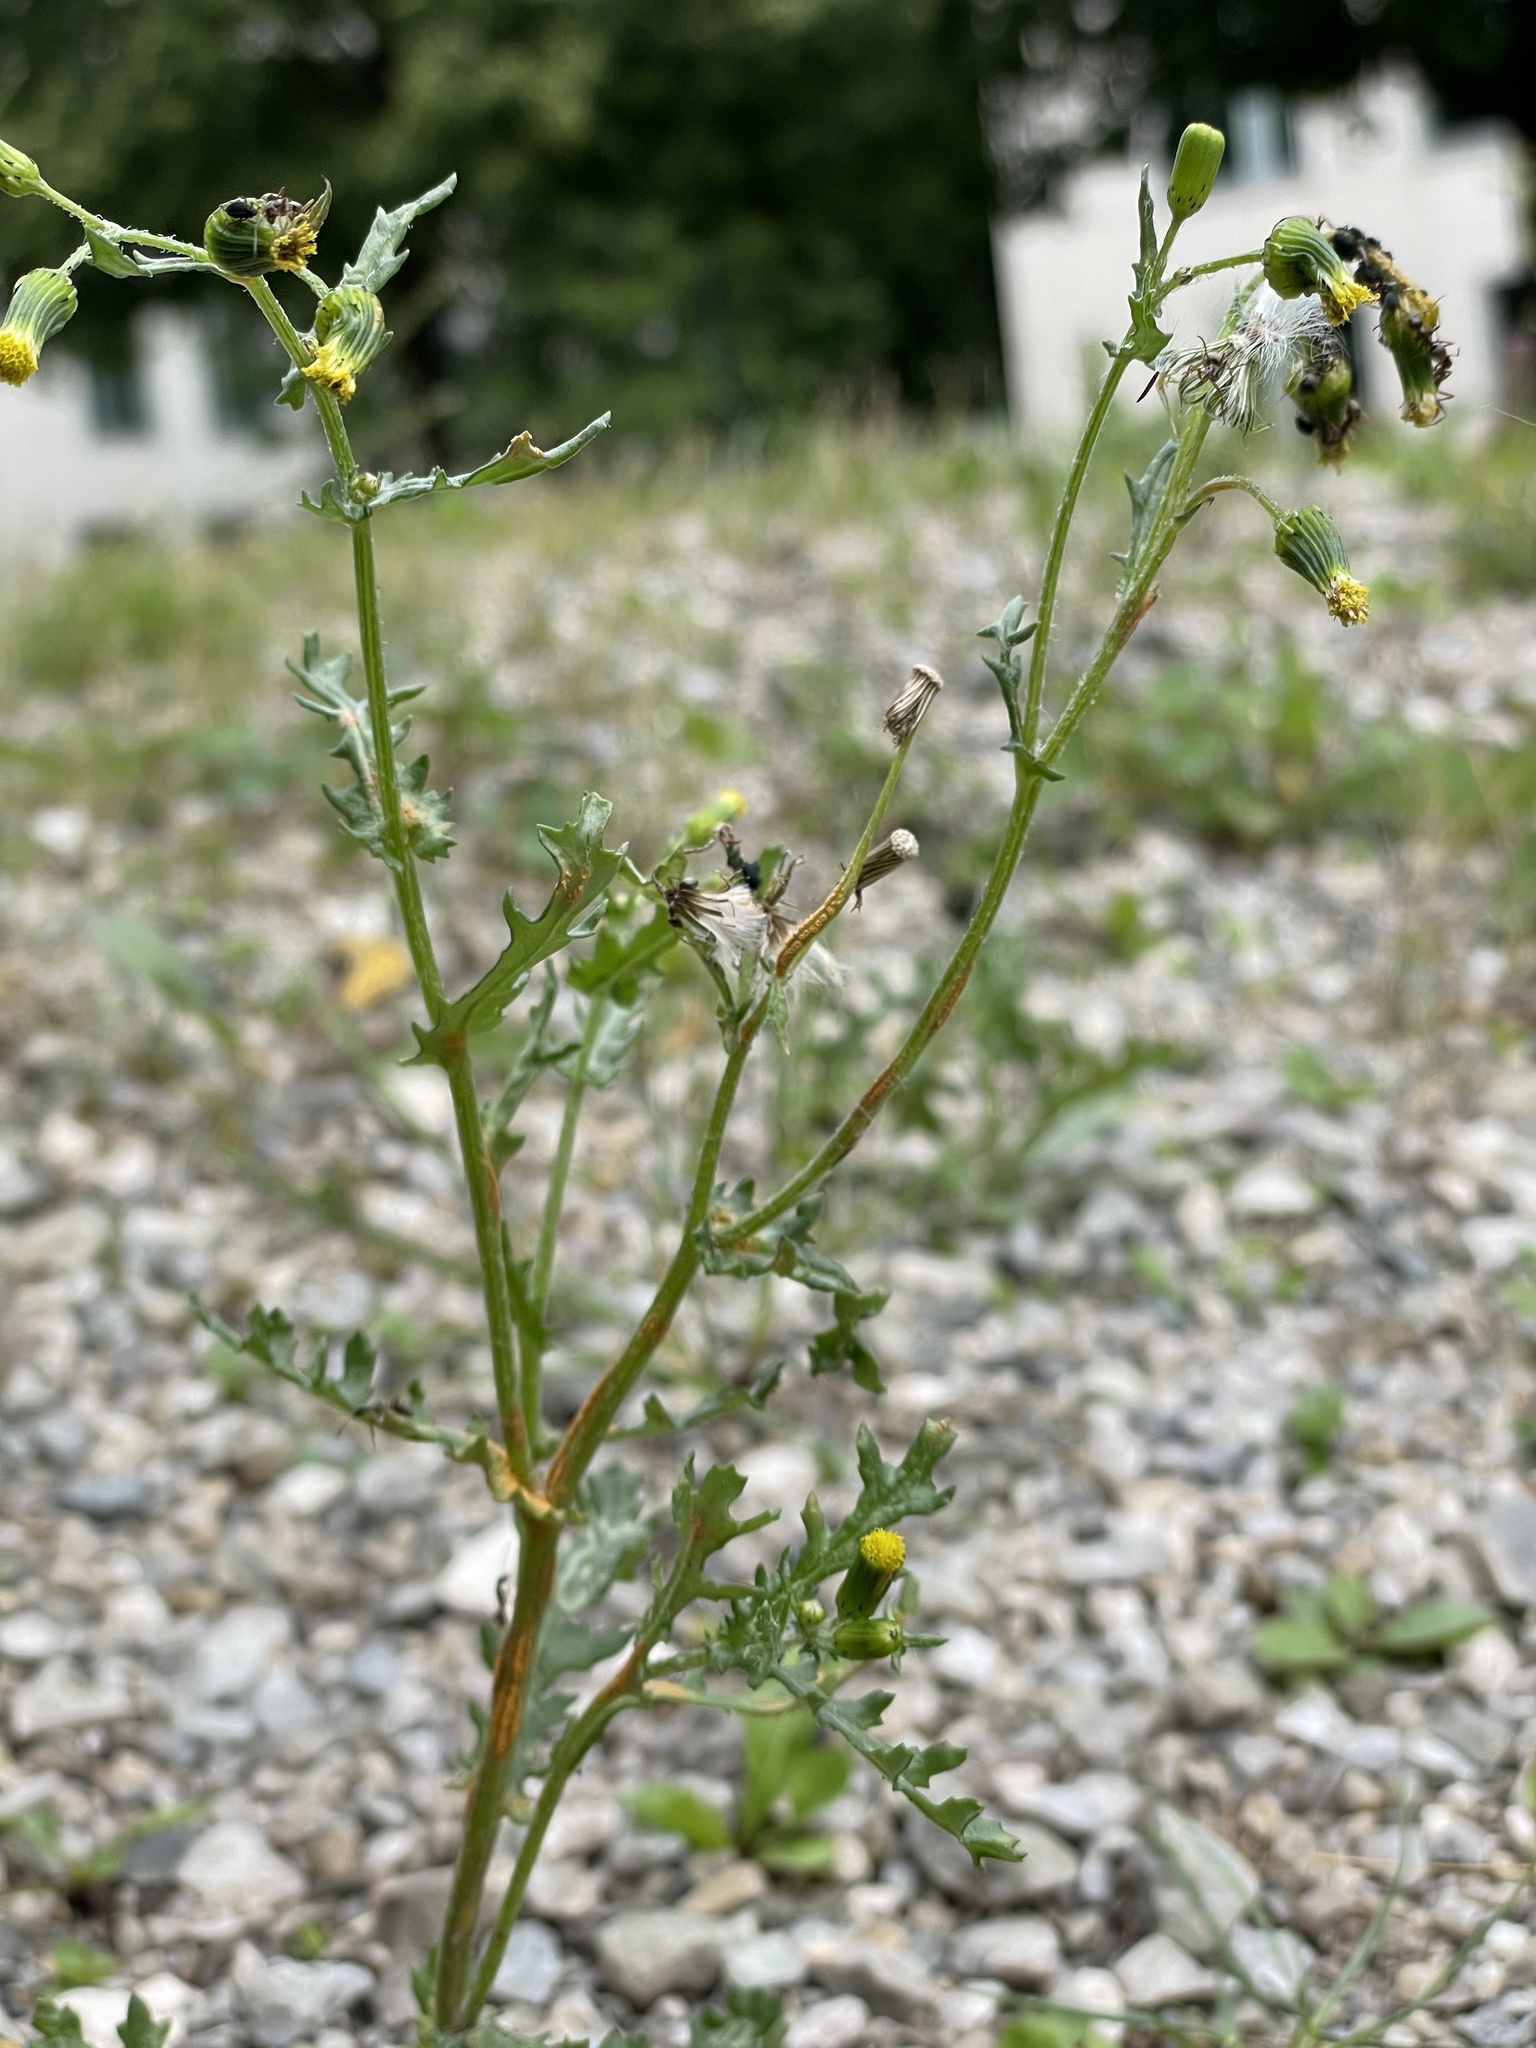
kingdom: Plantae
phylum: Tracheophyta
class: Magnoliopsida
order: Asterales
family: Asteraceae
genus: Senecio
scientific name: Senecio vulgaris
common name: Old-man-in-the-spring
